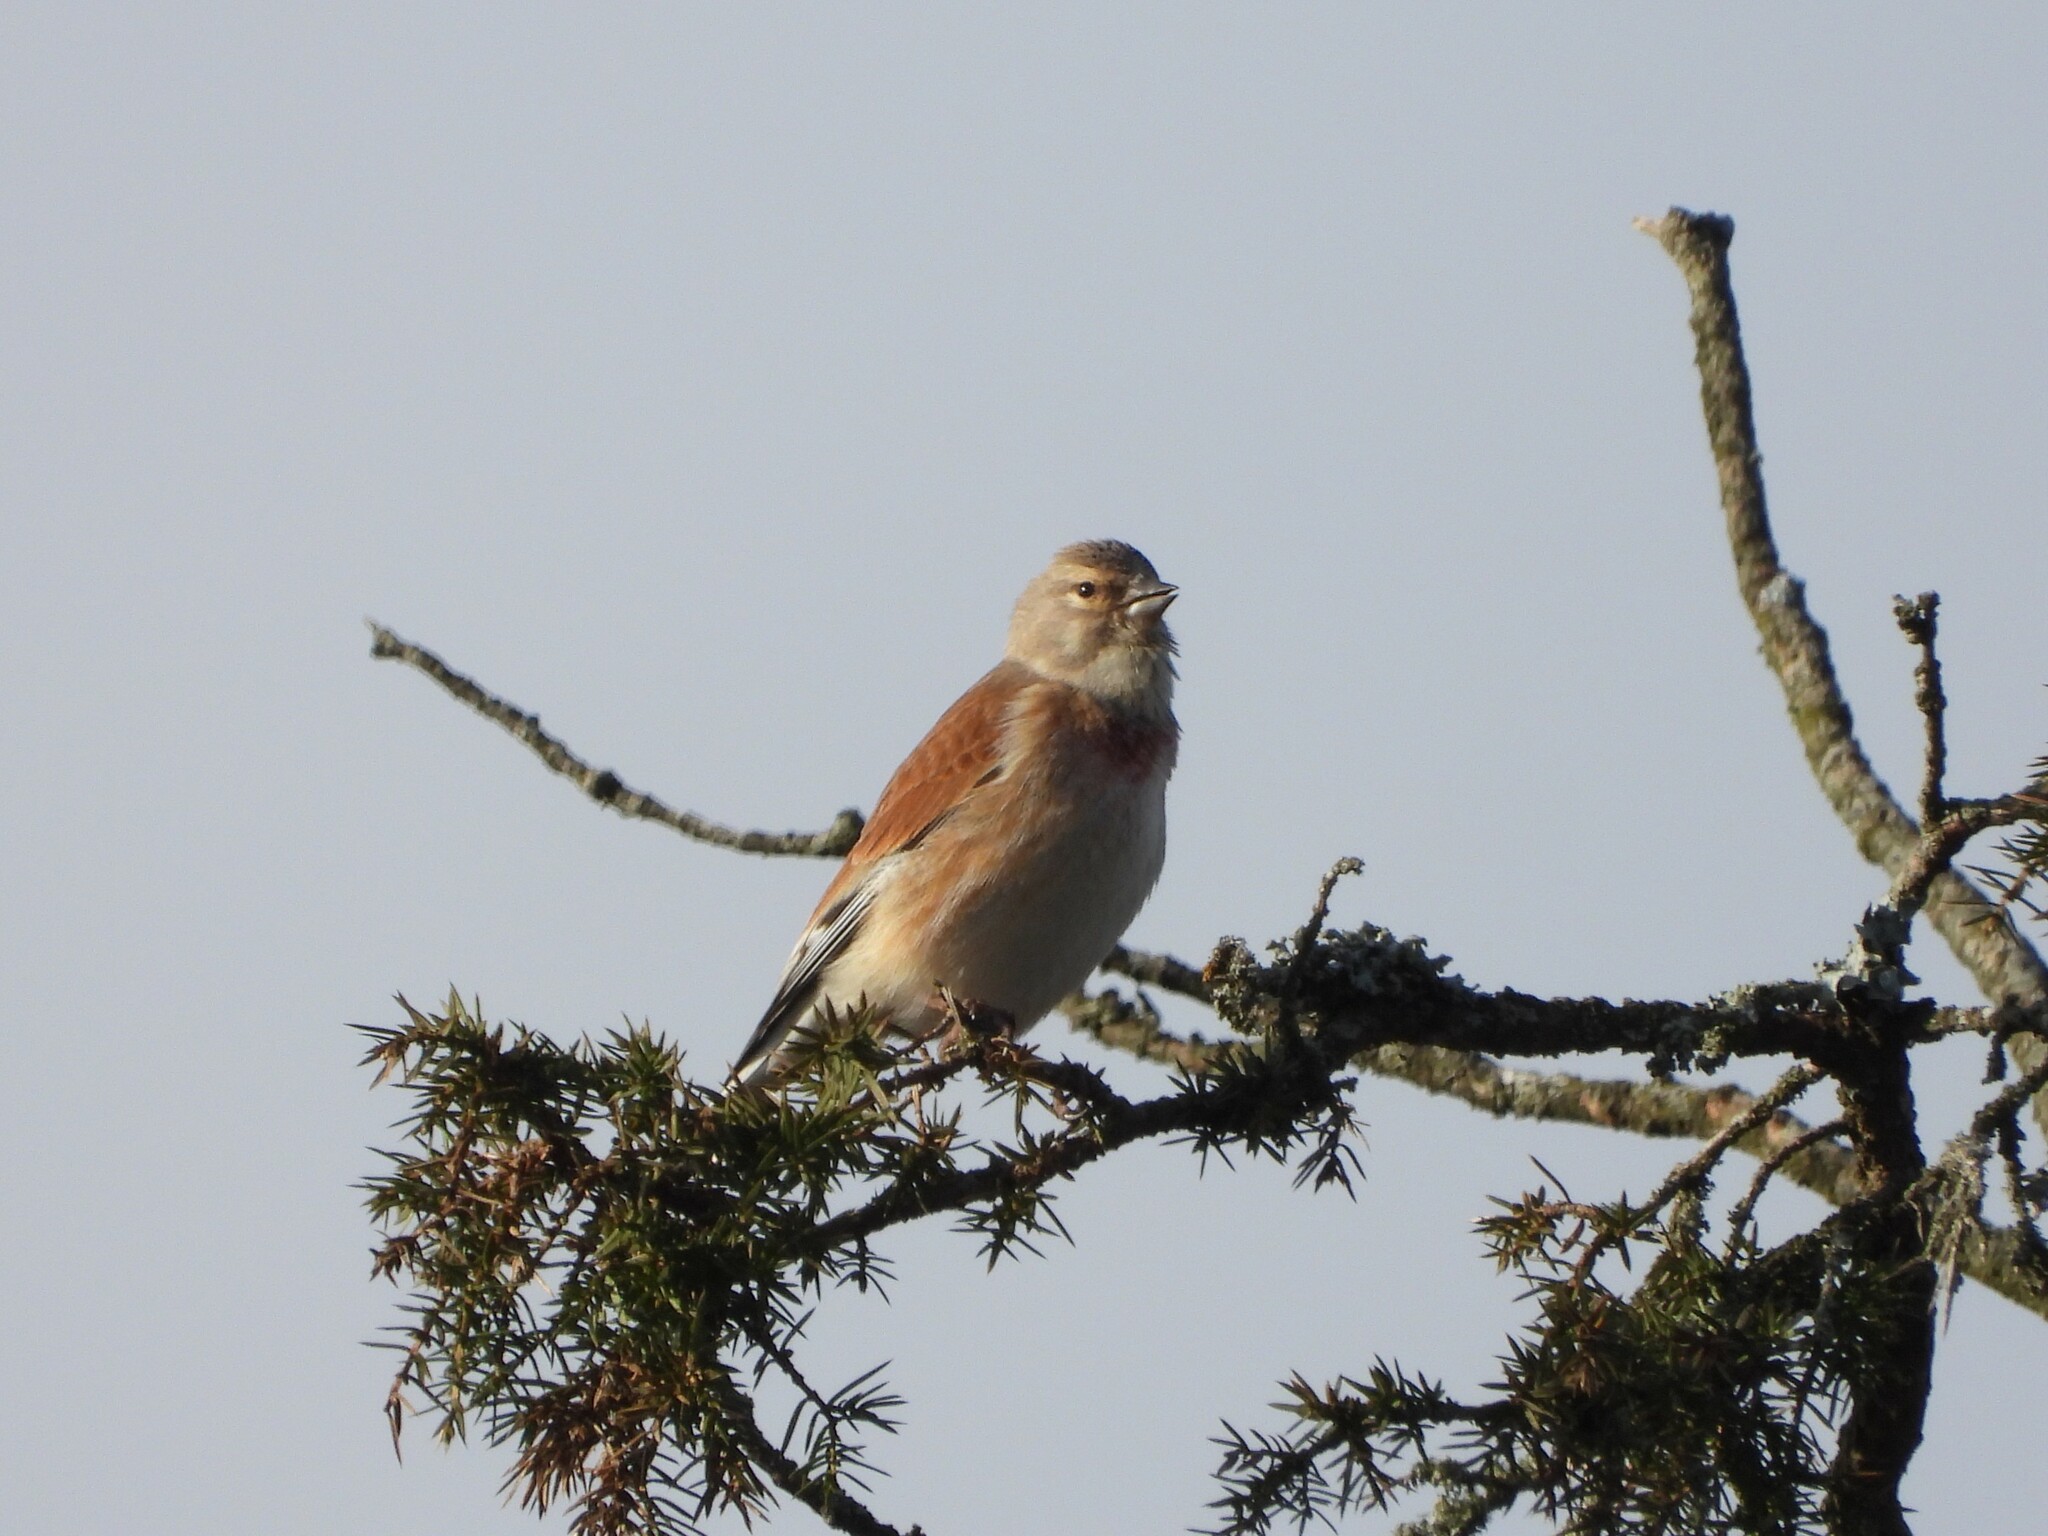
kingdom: Animalia
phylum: Chordata
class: Aves
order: Passeriformes
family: Fringillidae
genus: Linaria
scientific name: Linaria cannabina
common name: Common linnet
